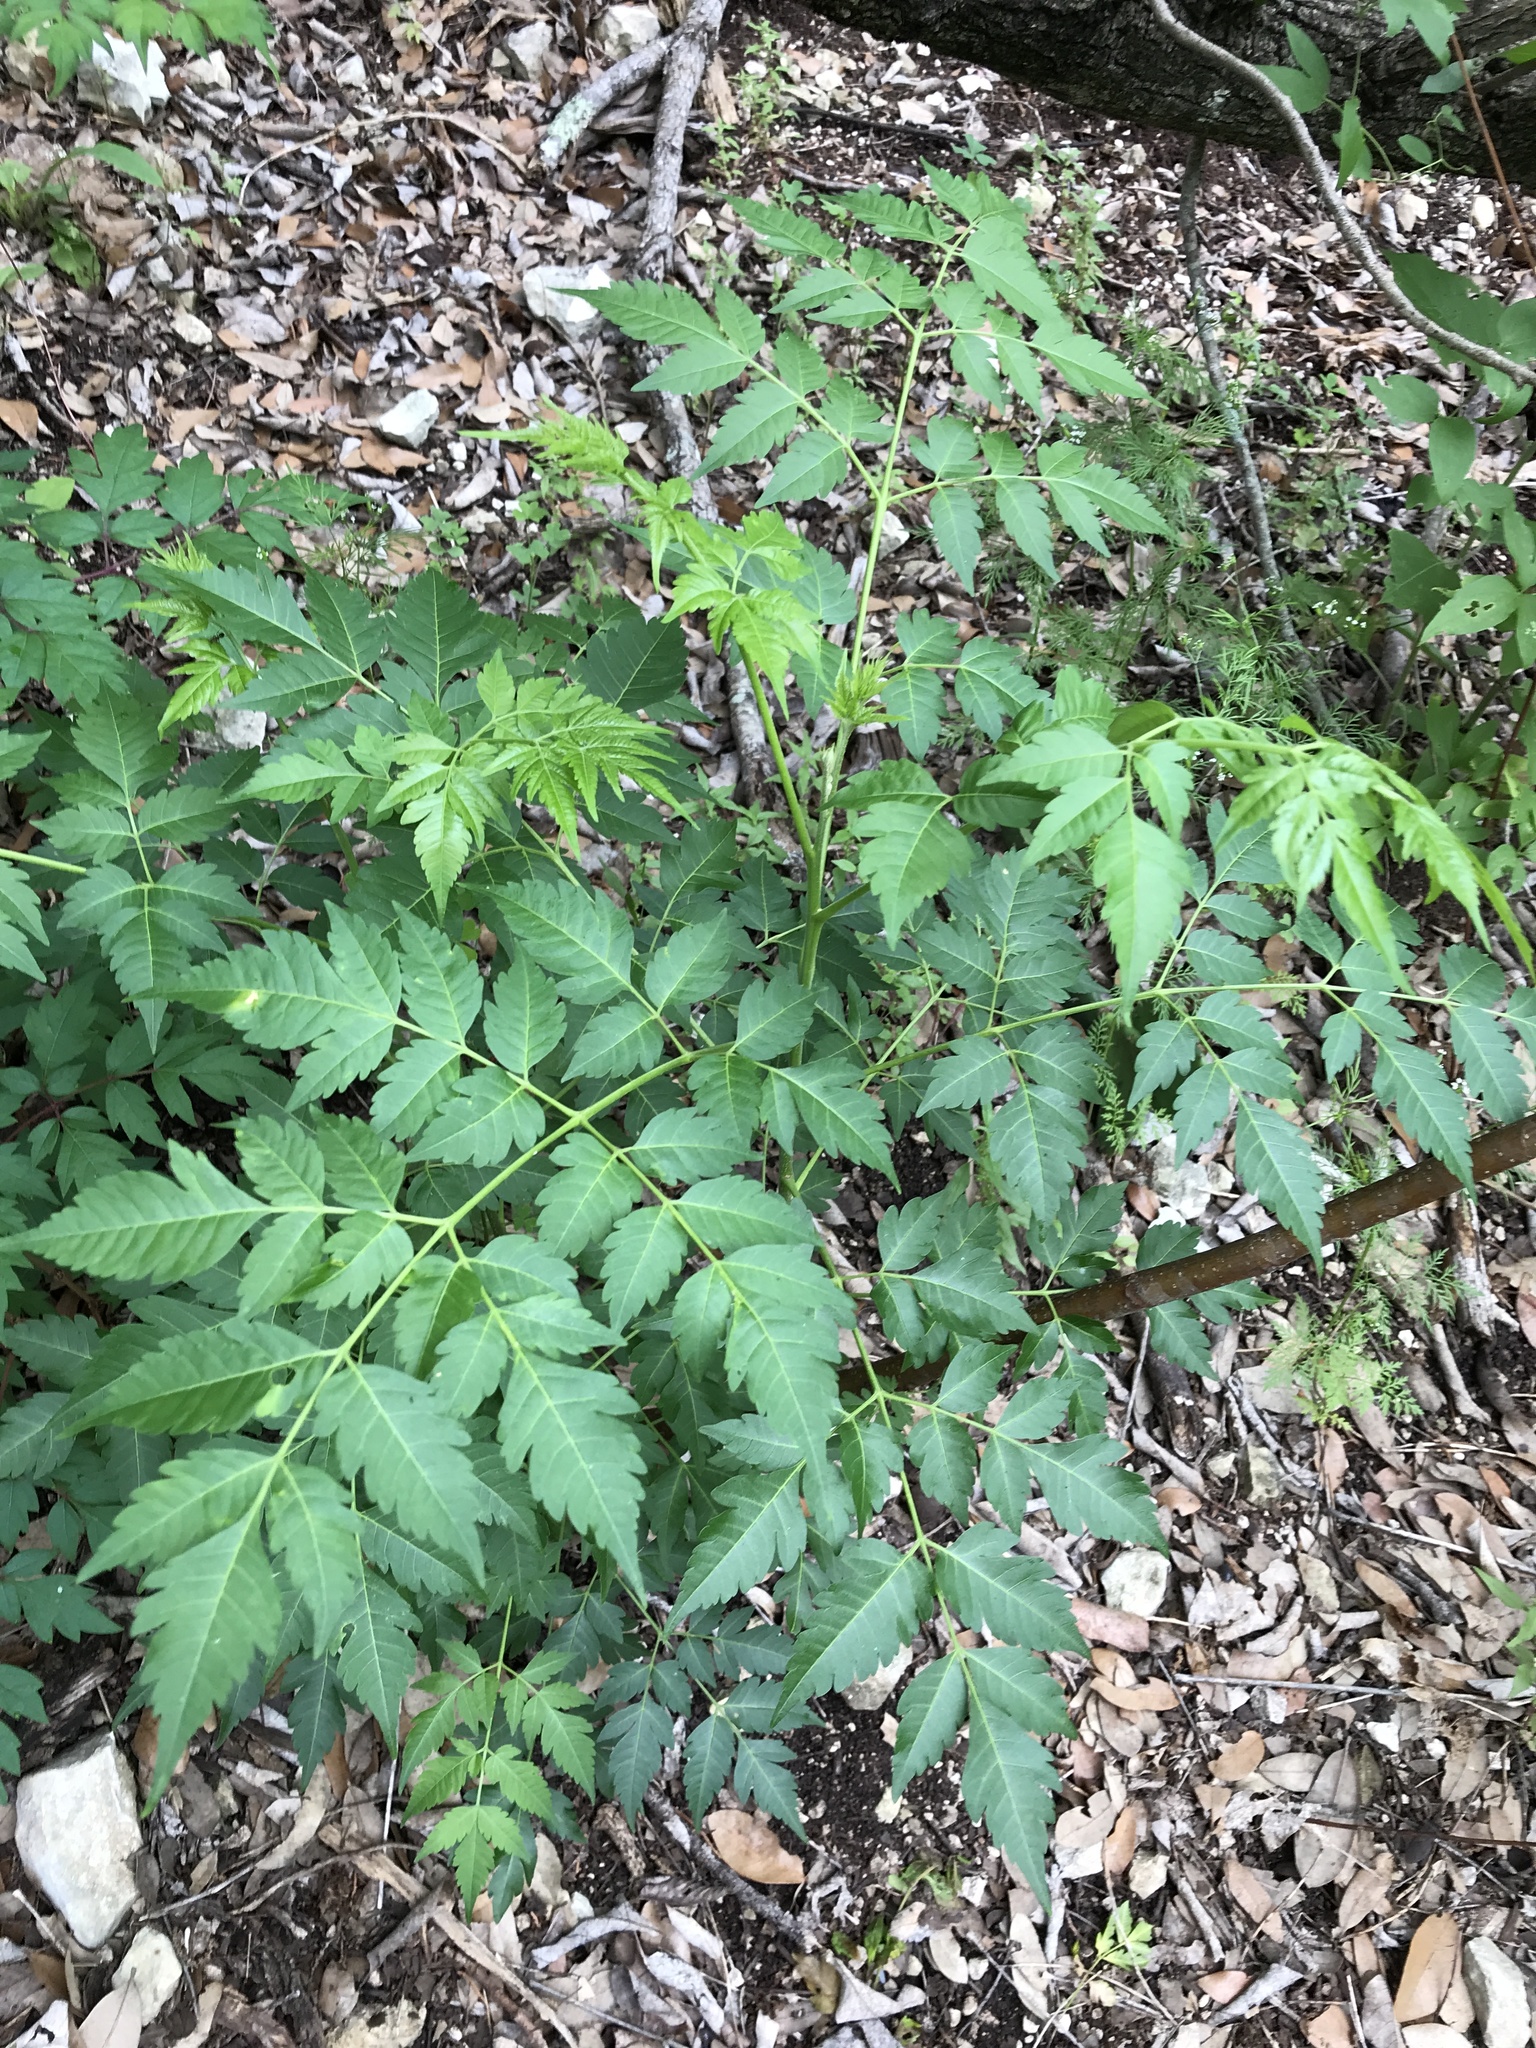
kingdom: Plantae
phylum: Tracheophyta
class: Magnoliopsida
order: Sapindales
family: Meliaceae
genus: Melia
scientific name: Melia azedarach
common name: Chinaberrytree
